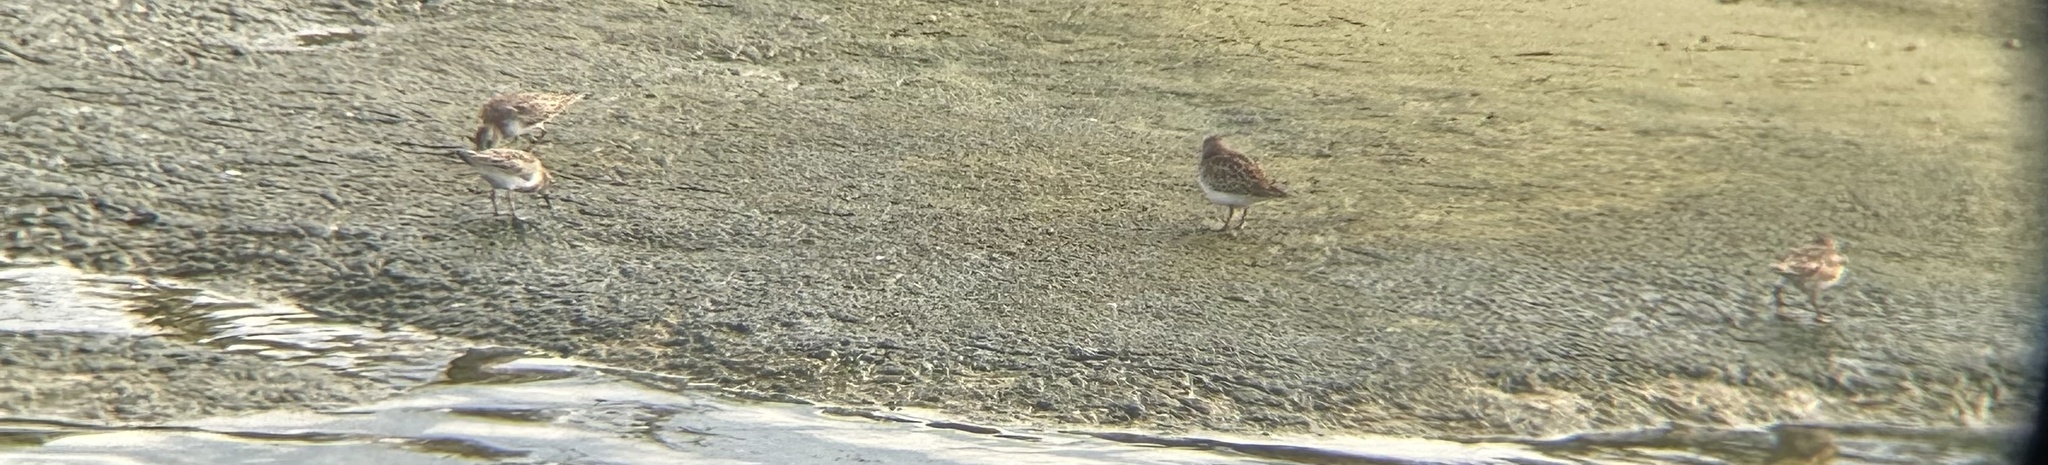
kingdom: Animalia
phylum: Chordata
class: Aves
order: Charadriiformes
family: Scolopacidae
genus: Calidris
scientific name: Calidris minutilla
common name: Least sandpiper
